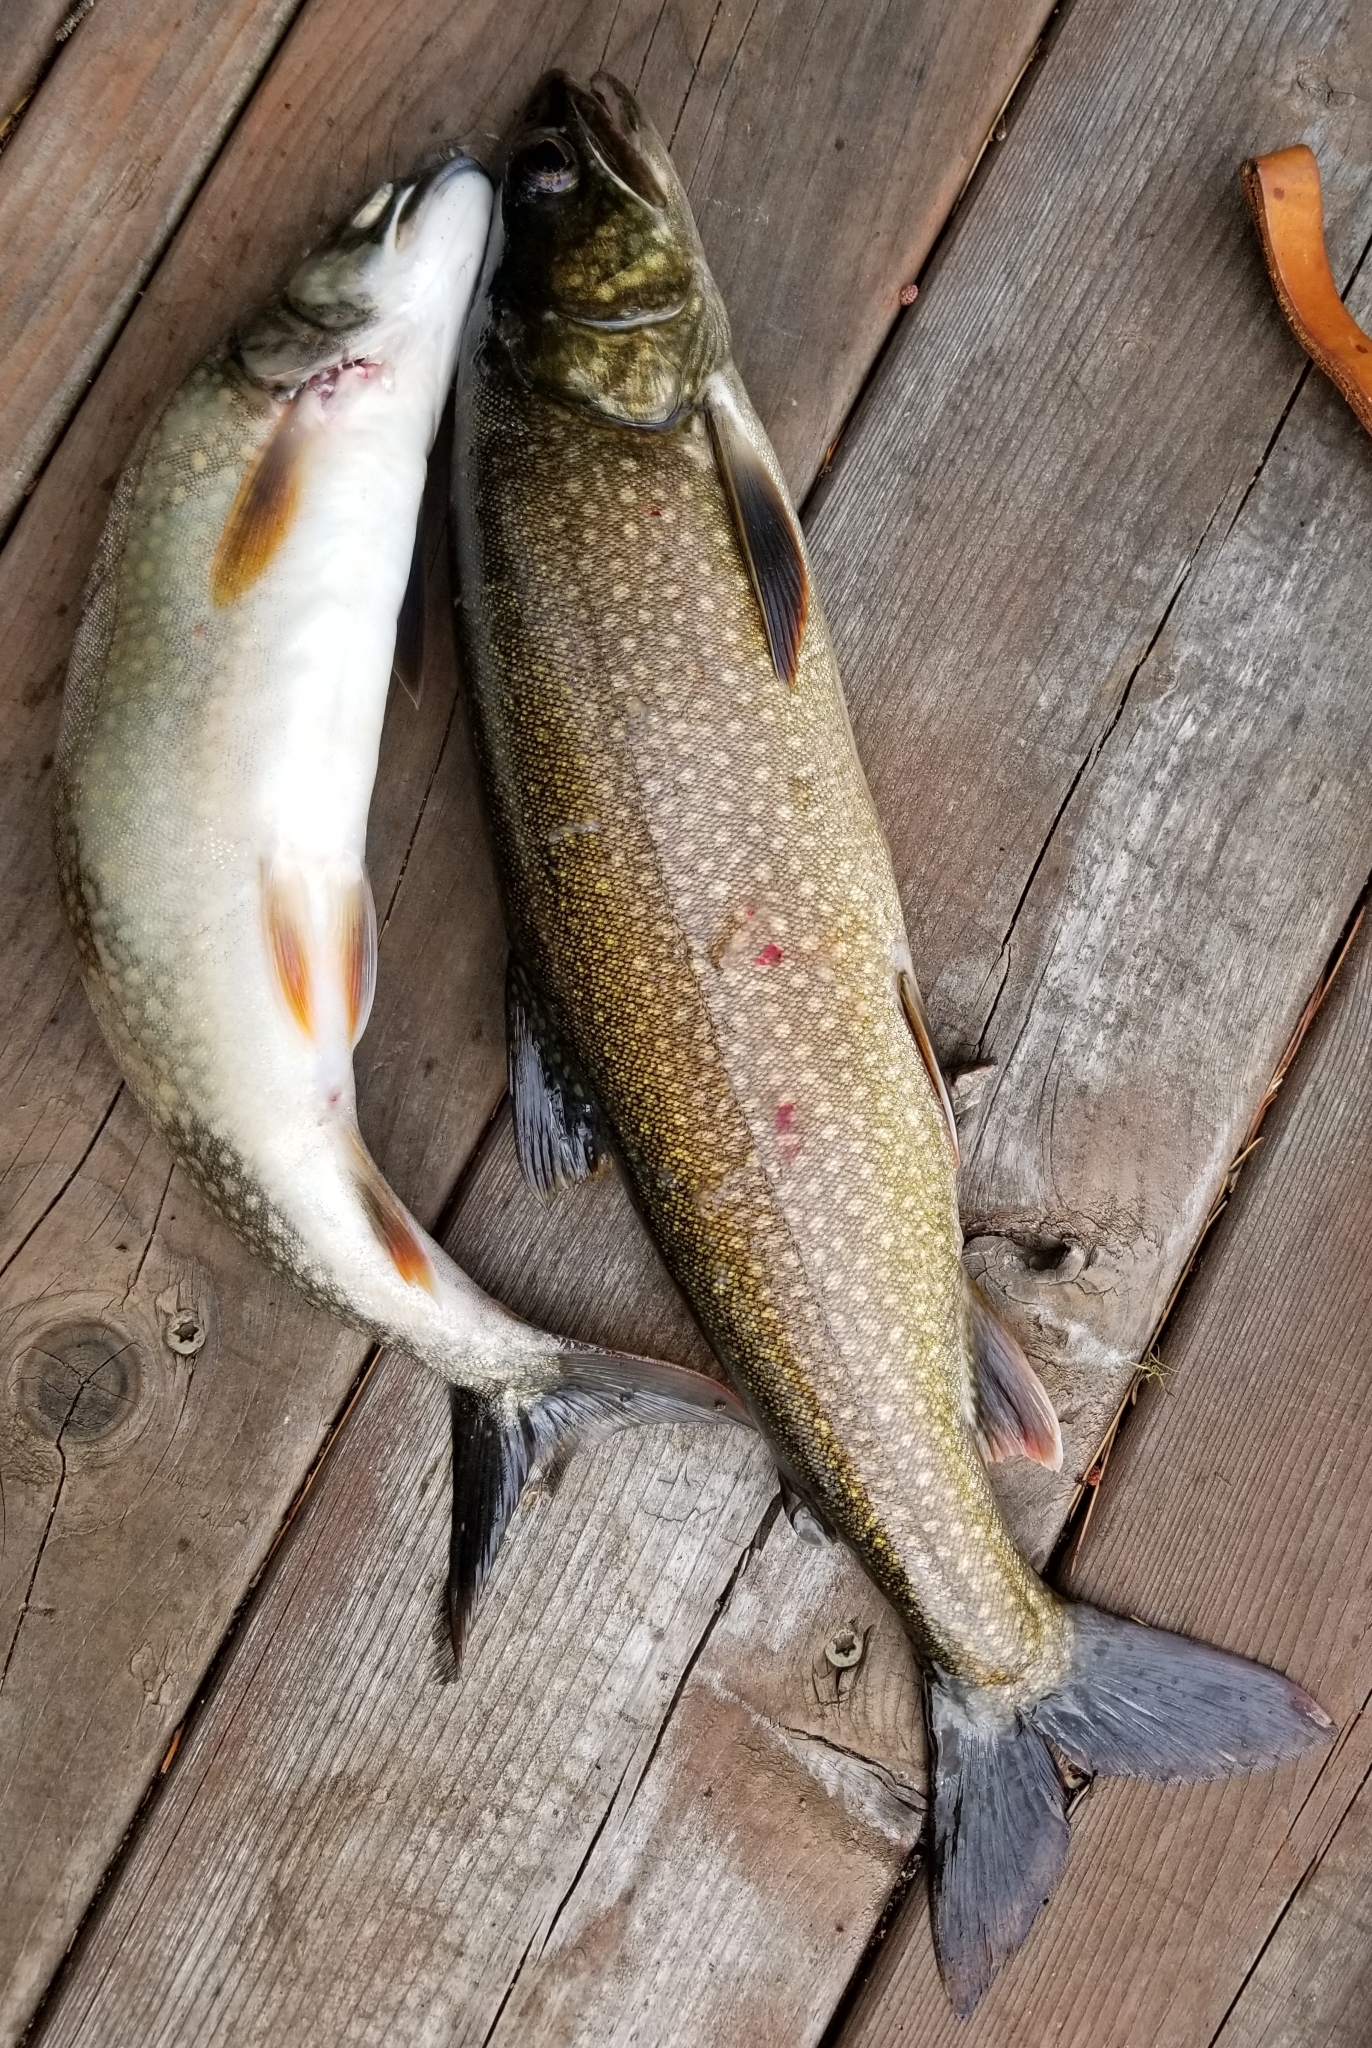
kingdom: Animalia
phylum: Chordata
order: Salmoniformes
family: Salmonidae
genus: Salvelinus
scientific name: Salvelinus namaycush
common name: American lake charr
